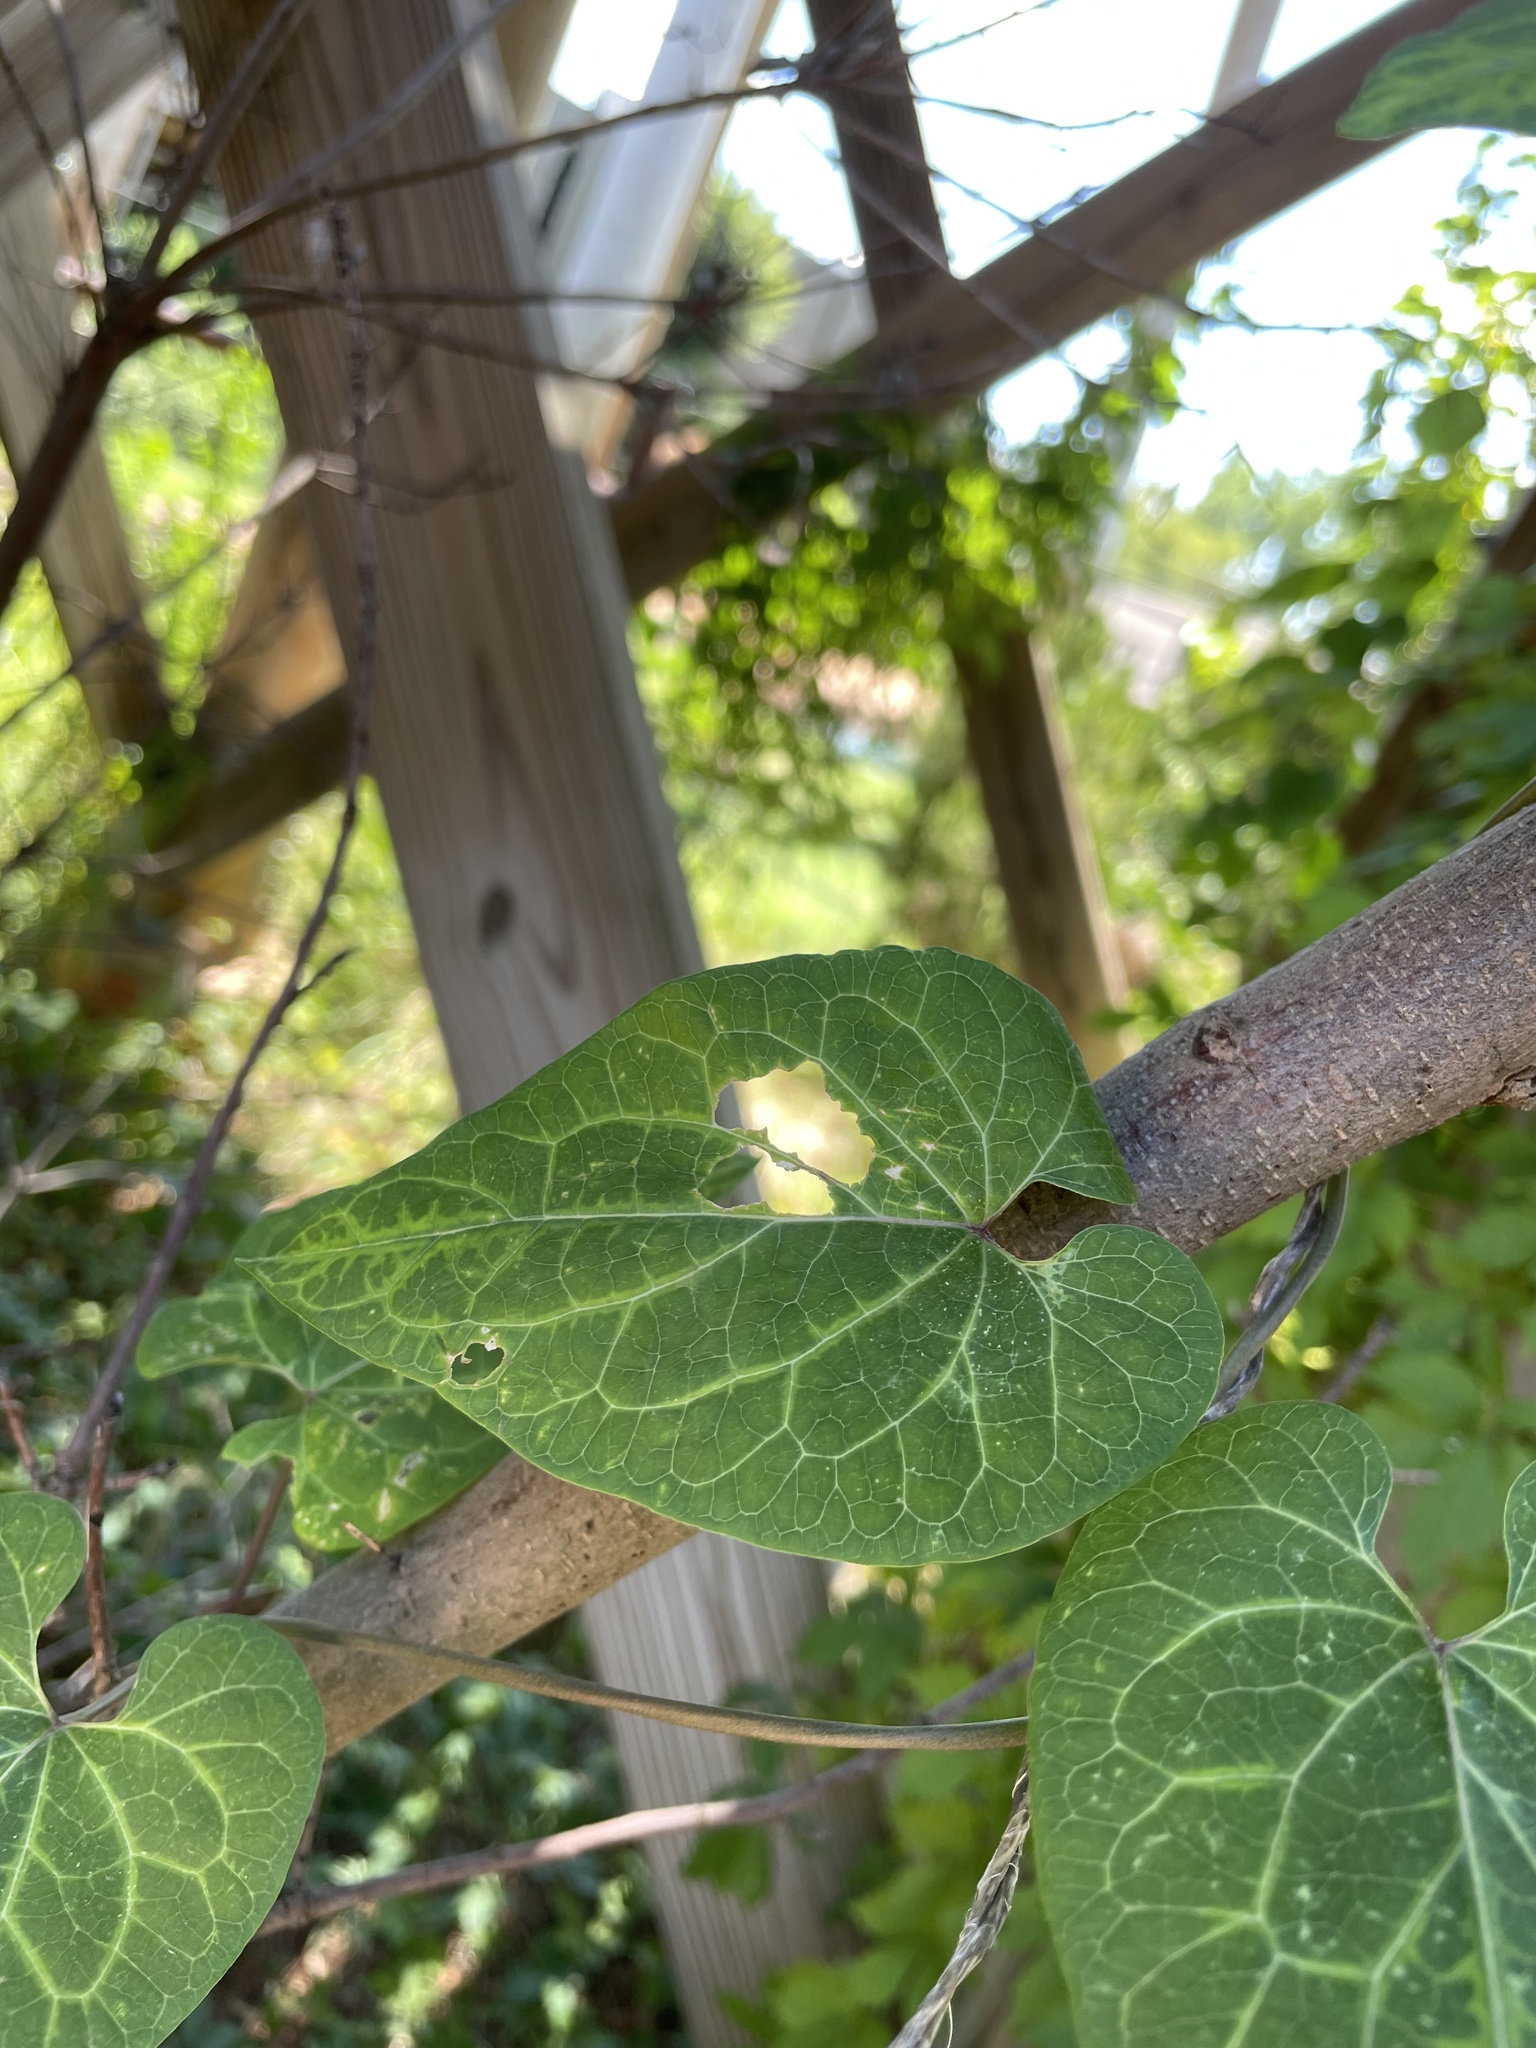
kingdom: Plantae
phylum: Tracheophyta
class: Magnoliopsida
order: Gentianales
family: Apocynaceae
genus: Cynanchum
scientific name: Cynanchum laeve
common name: Sandvine
